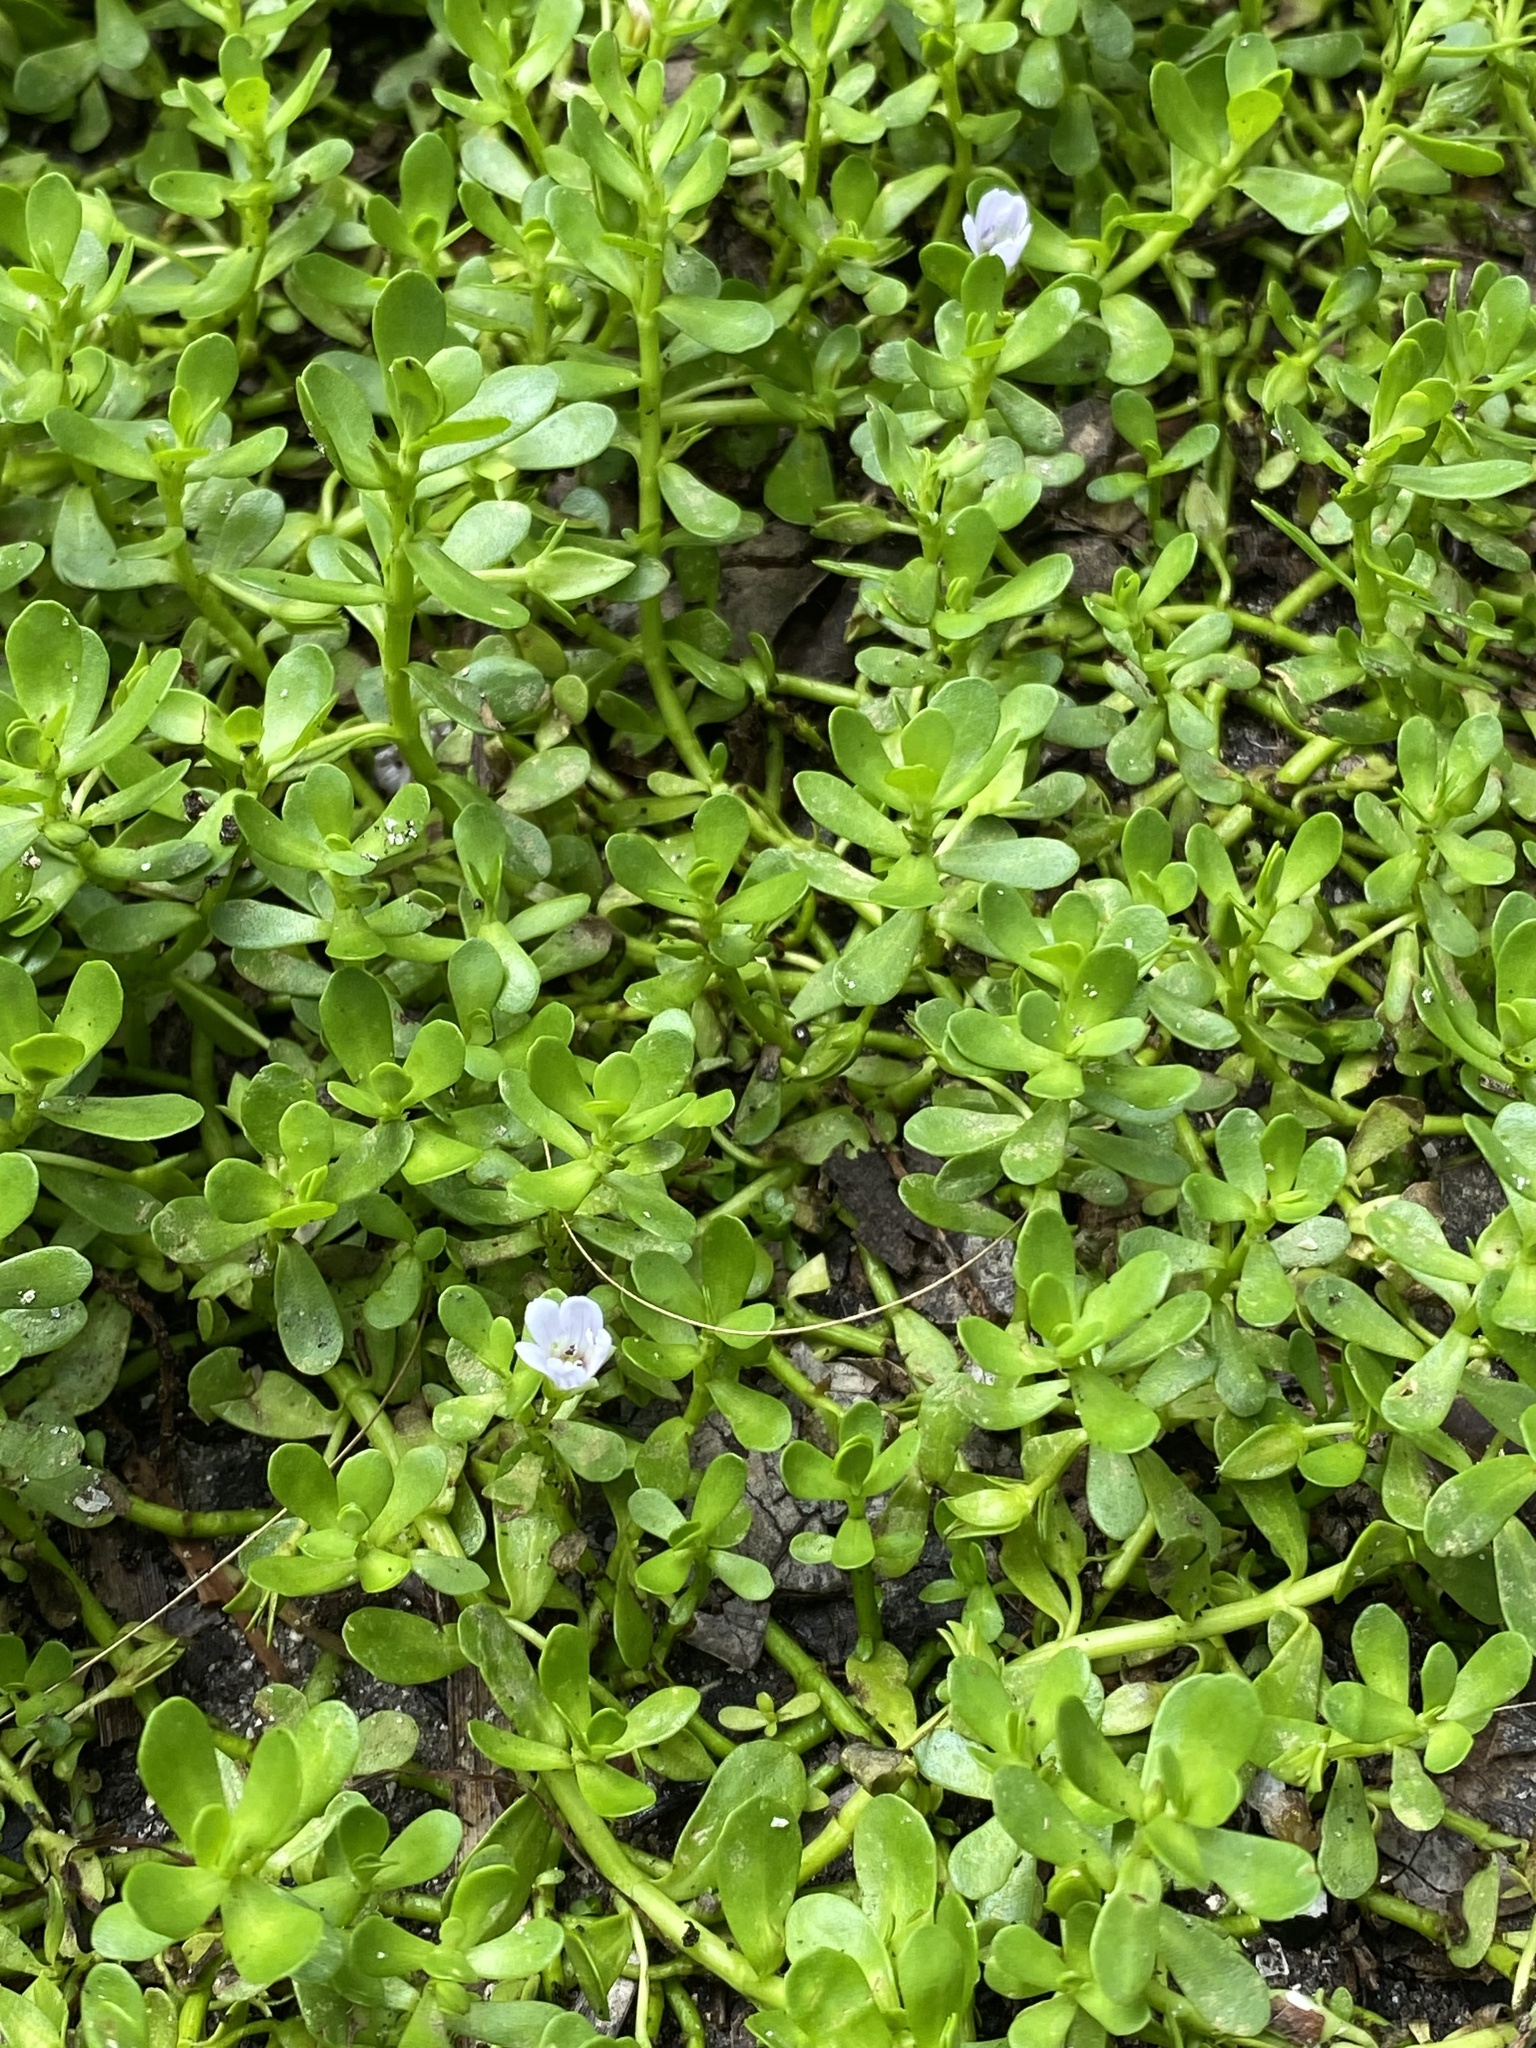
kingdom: Plantae
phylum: Tracheophyta
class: Magnoliopsida
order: Lamiales
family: Plantaginaceae
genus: Bacopa
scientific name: Bacopa monnieri
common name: Indian-pennywort
